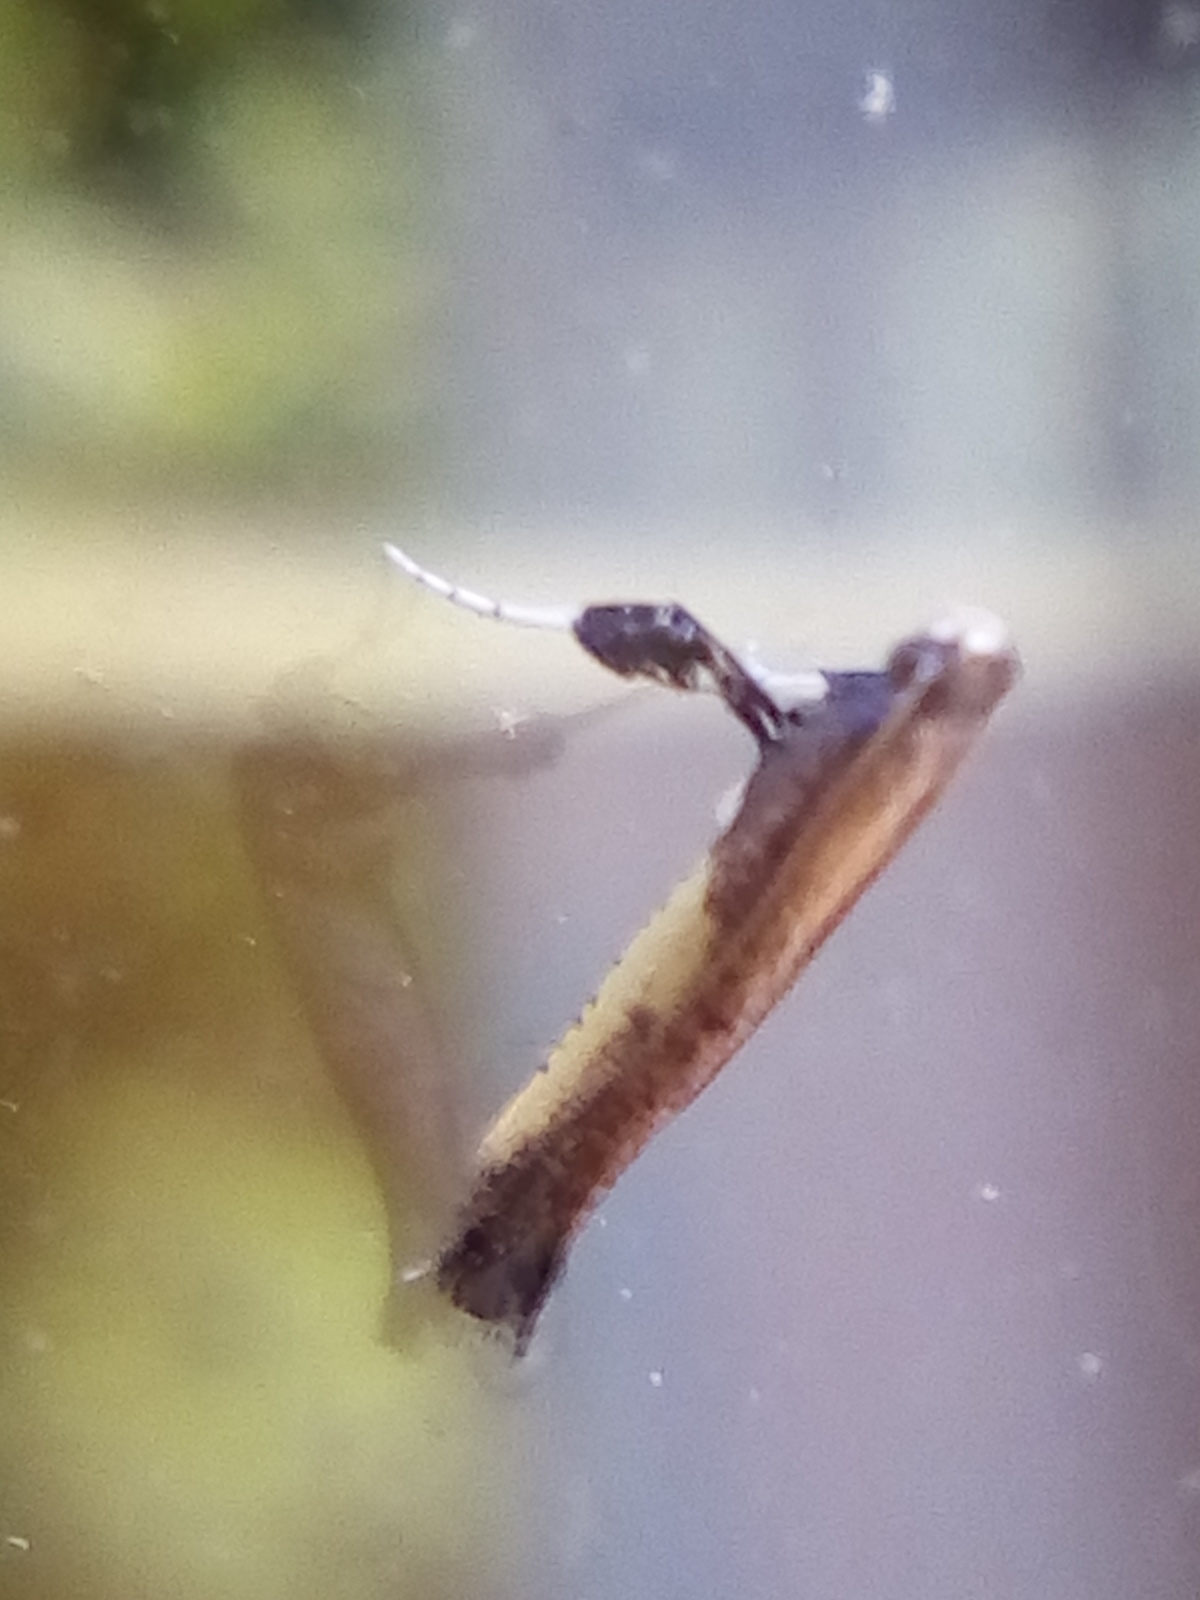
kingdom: Animalia
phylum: Arthropoda
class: Insecta
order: Lepidoptera
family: Gracillariidae
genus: Caloptilia
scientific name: Caloptilia azaleella
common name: Azalea leafminer
